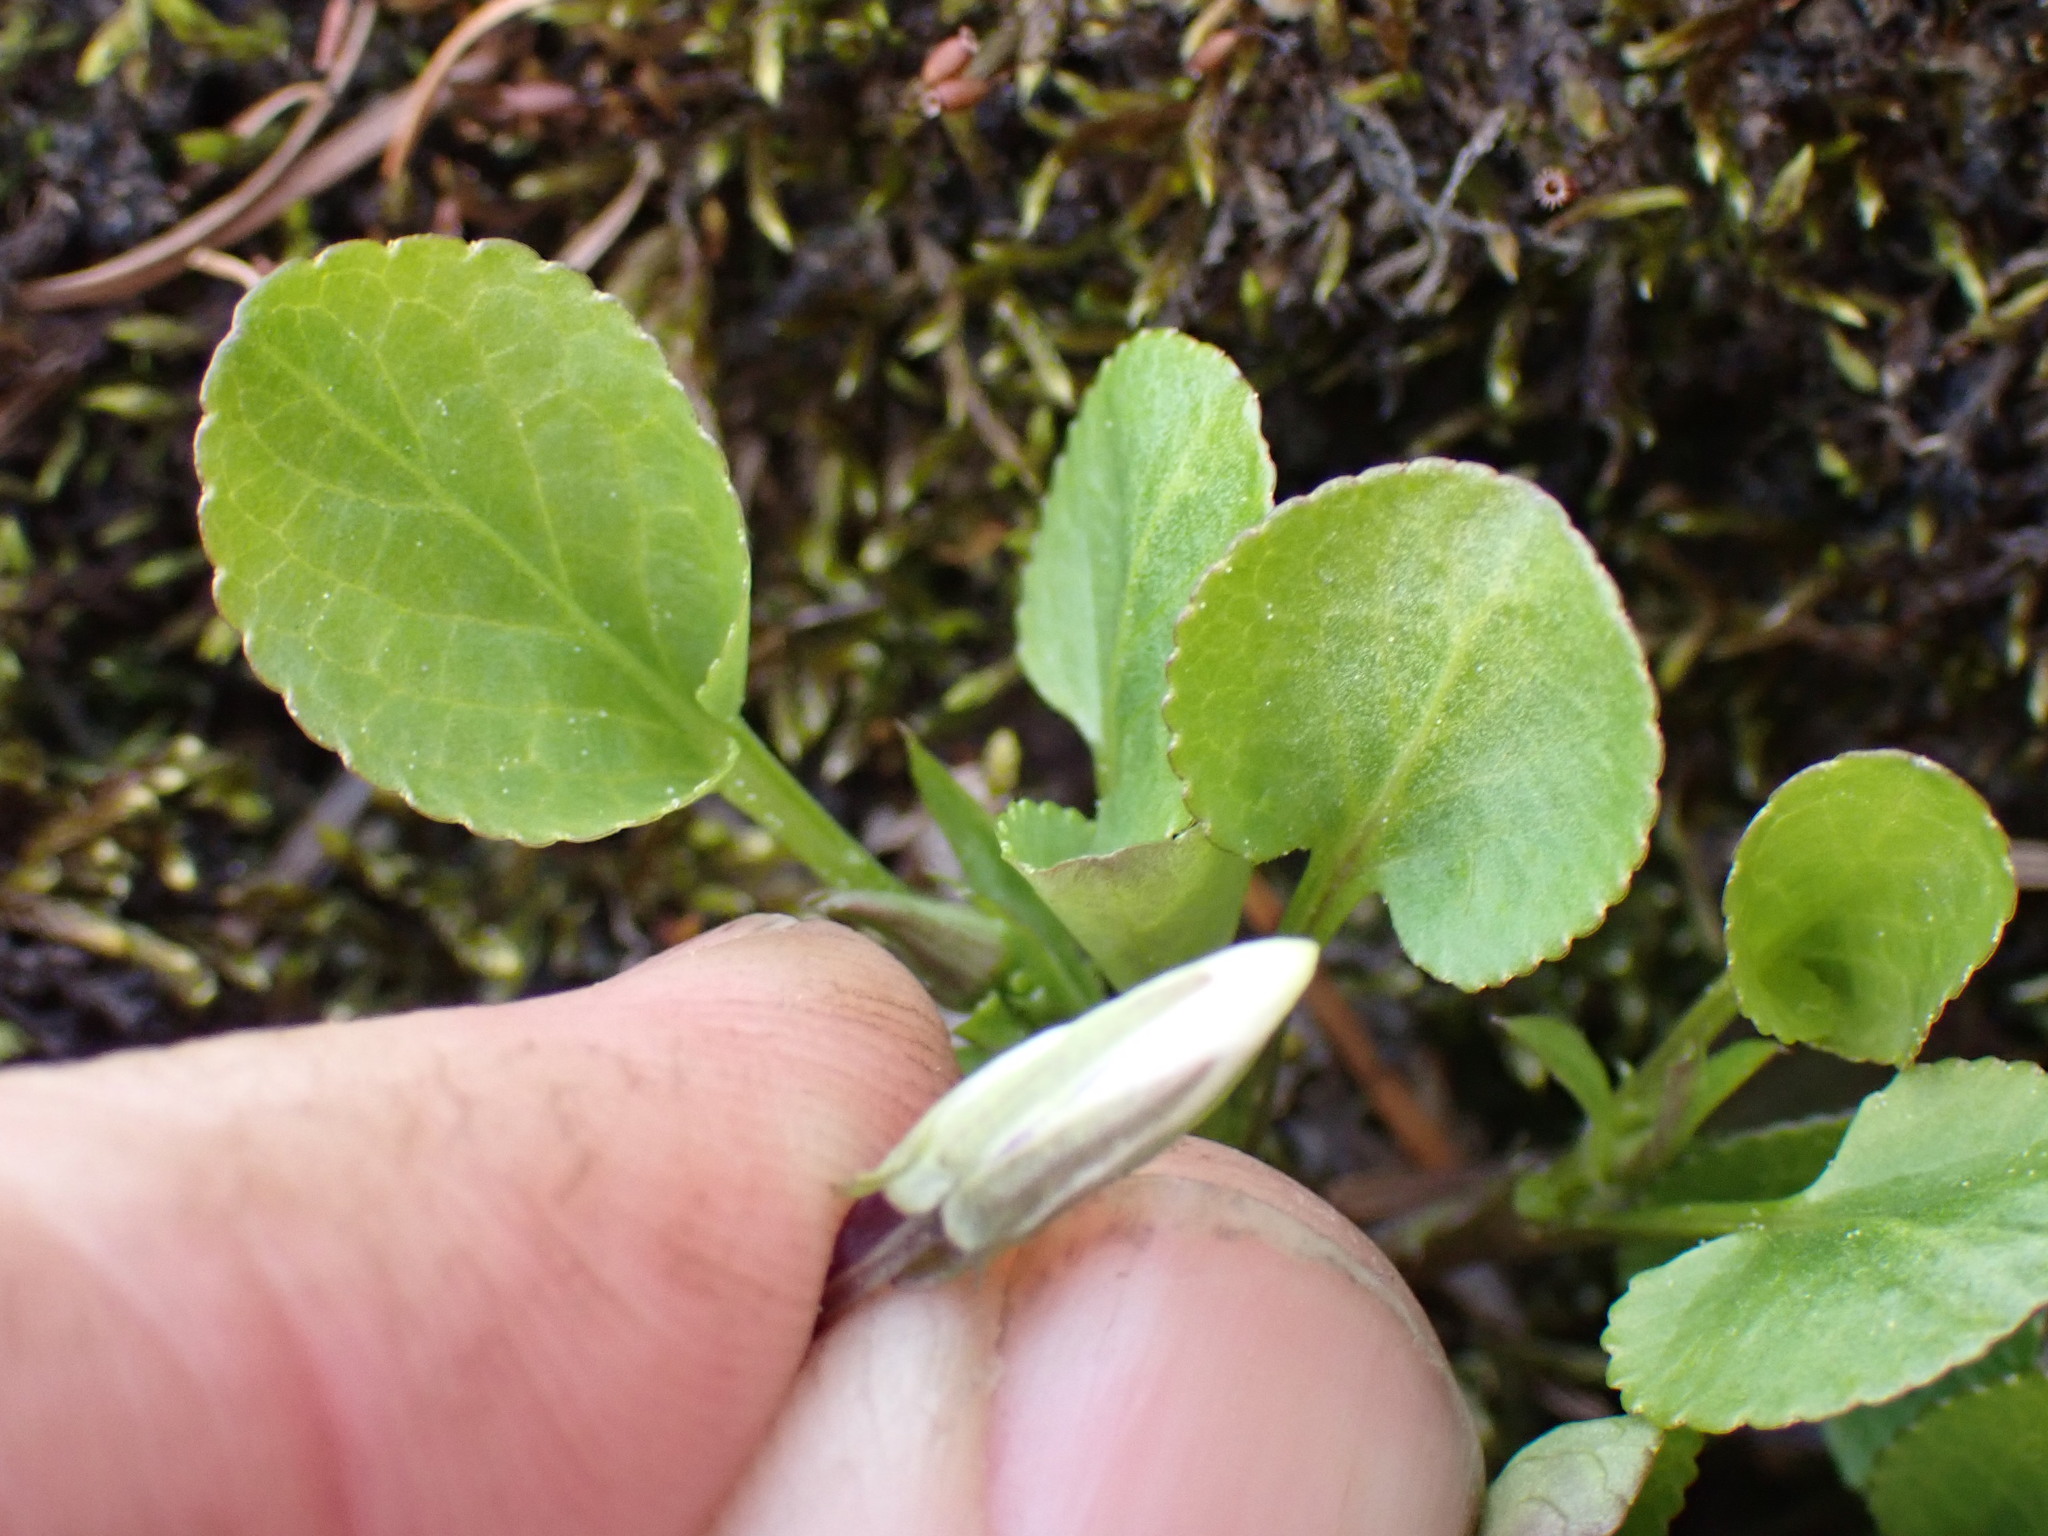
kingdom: Plantae
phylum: Tracheophyta
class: Magnoliopsida
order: Malpighiales
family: Violaceae
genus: Viola
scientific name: Viola adunca
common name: Sand violet
